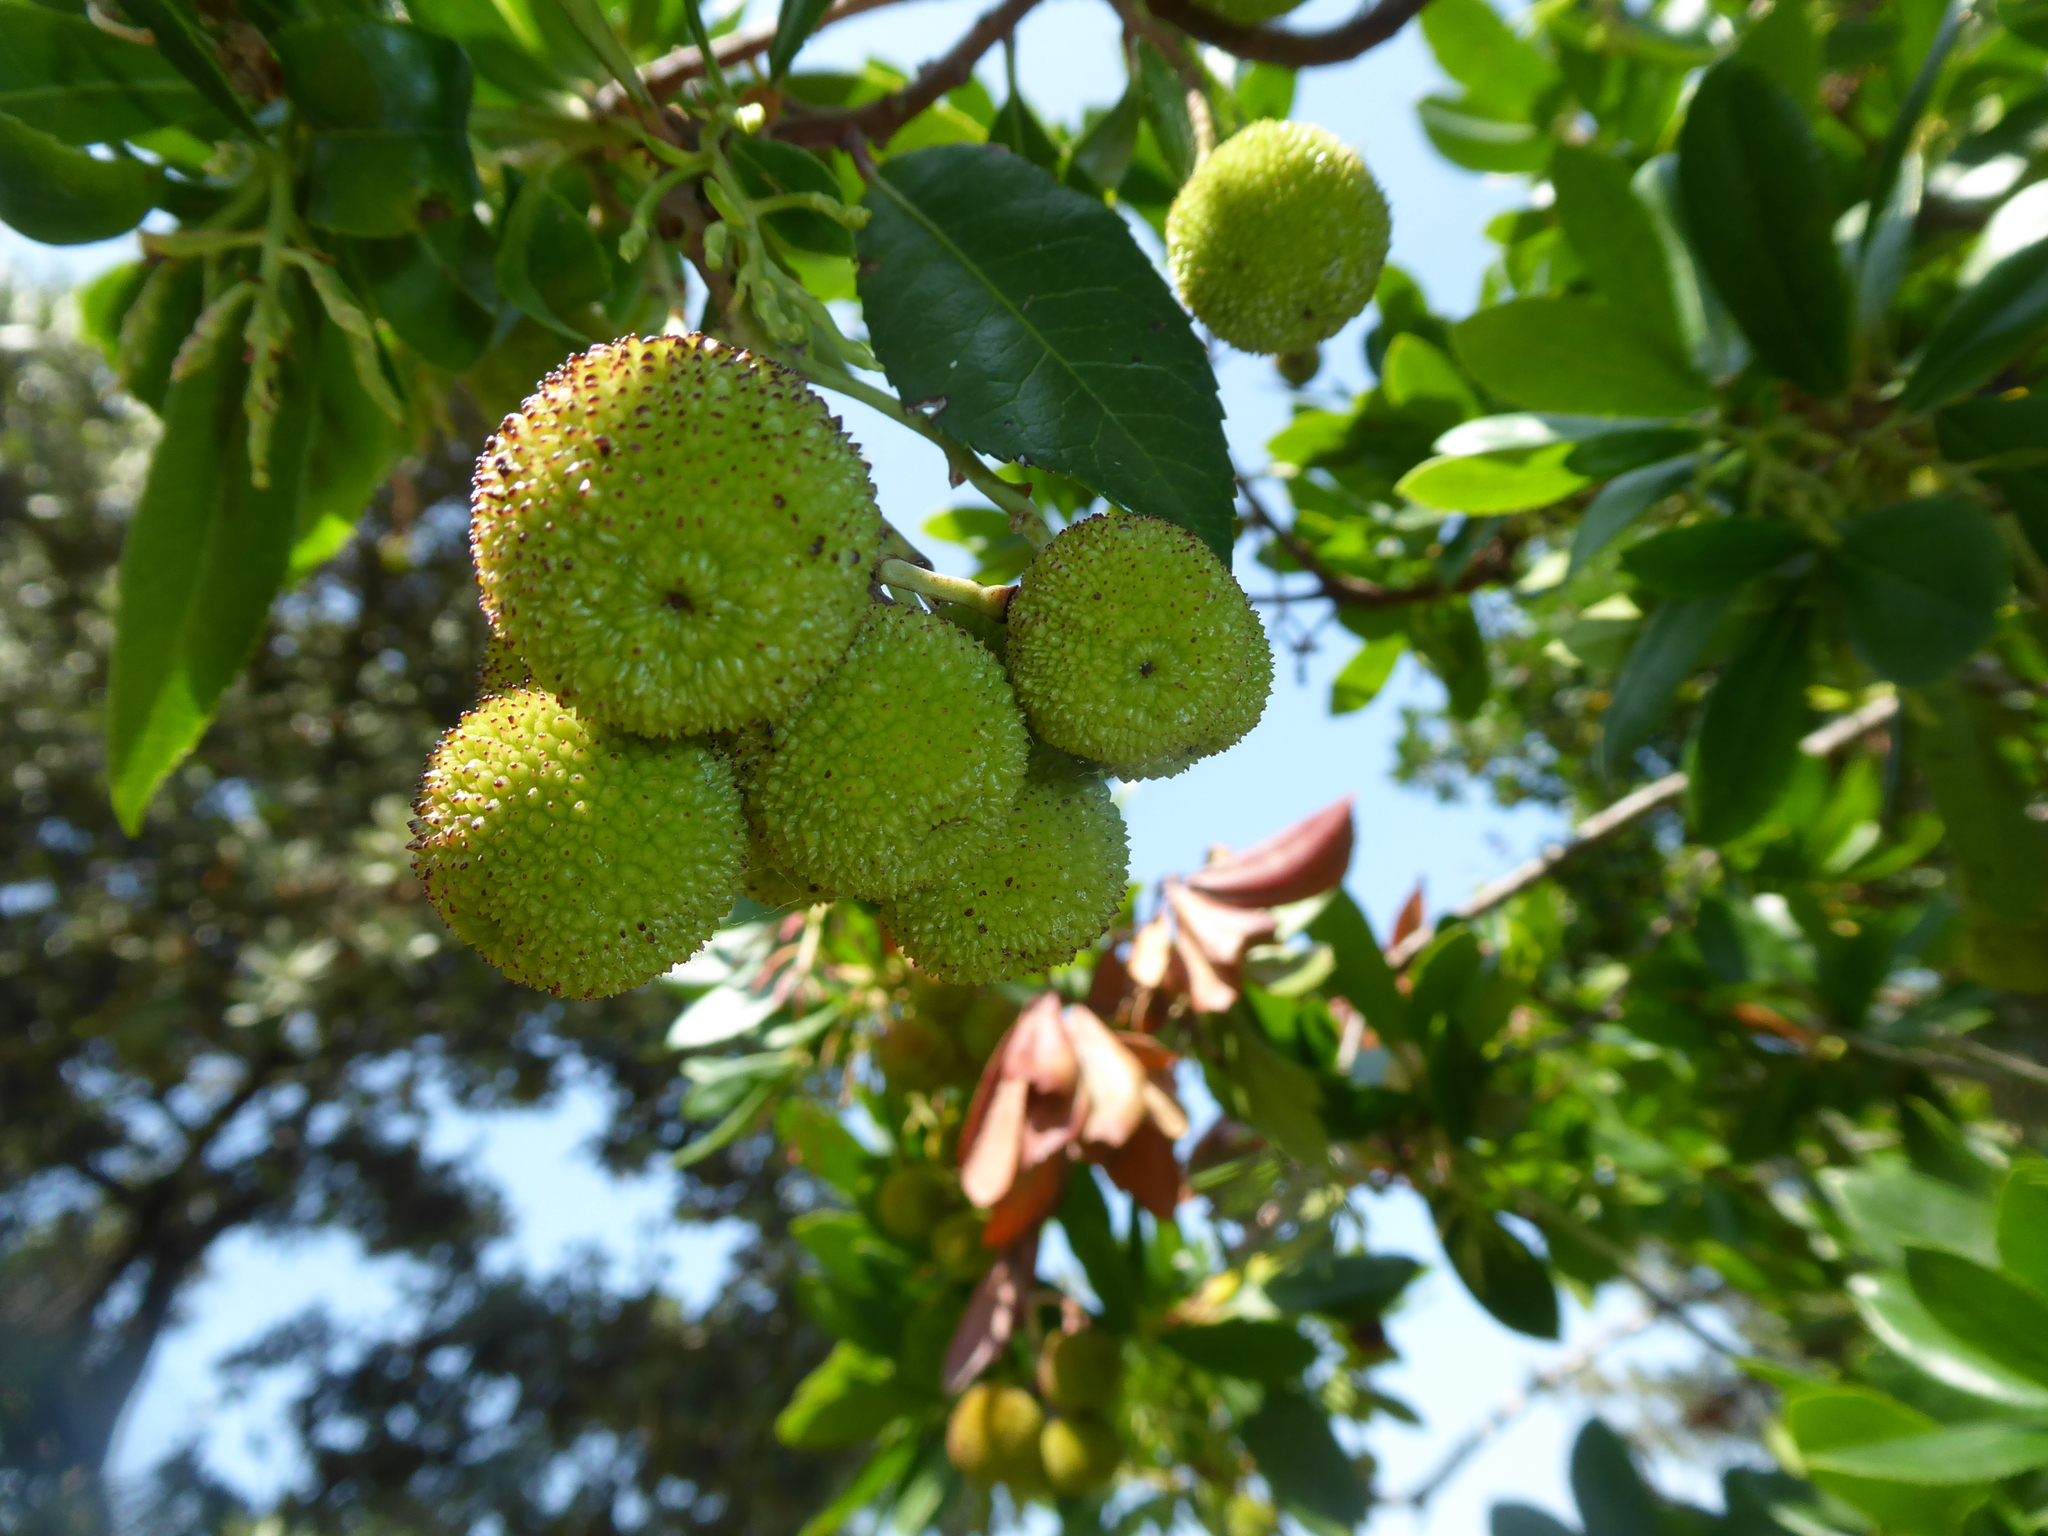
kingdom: Plantae
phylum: Tracheophyta
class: Magnoliopsida
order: Ericales
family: Ericaceae
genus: Arbutus
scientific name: Arbutus unedo
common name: Strawberry-tree
